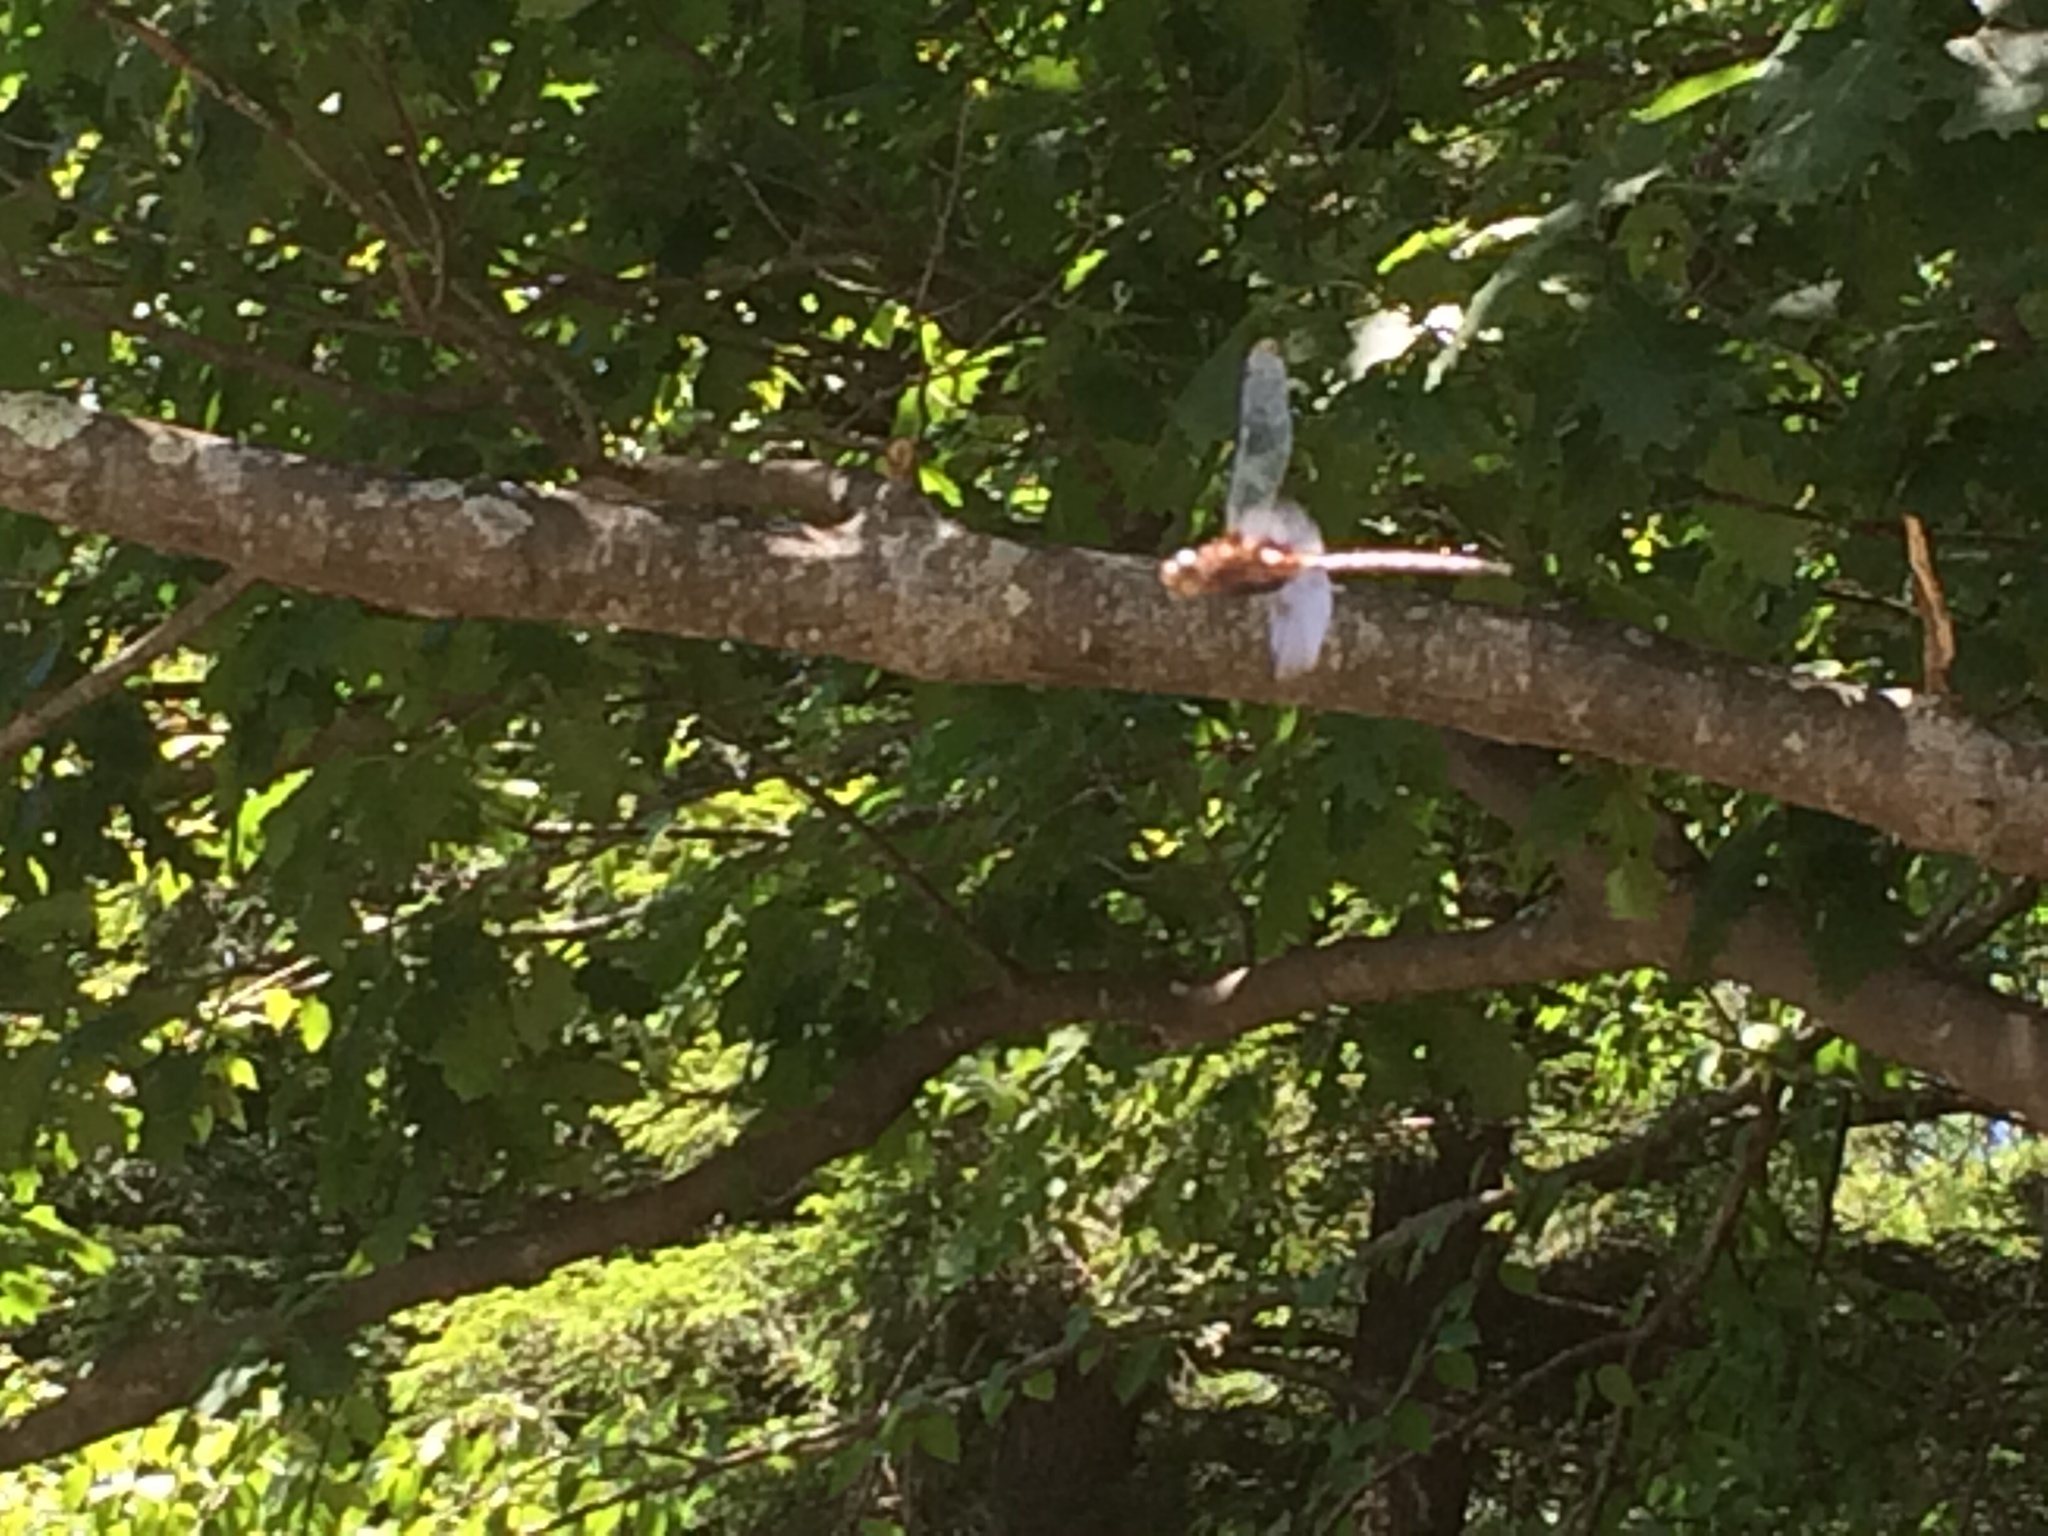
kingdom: Animalia
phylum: Arthropoda
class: Insecta
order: Odonata
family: Corduliidae
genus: Epitheca
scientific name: Epitheca princeps
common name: Prince baskettail
